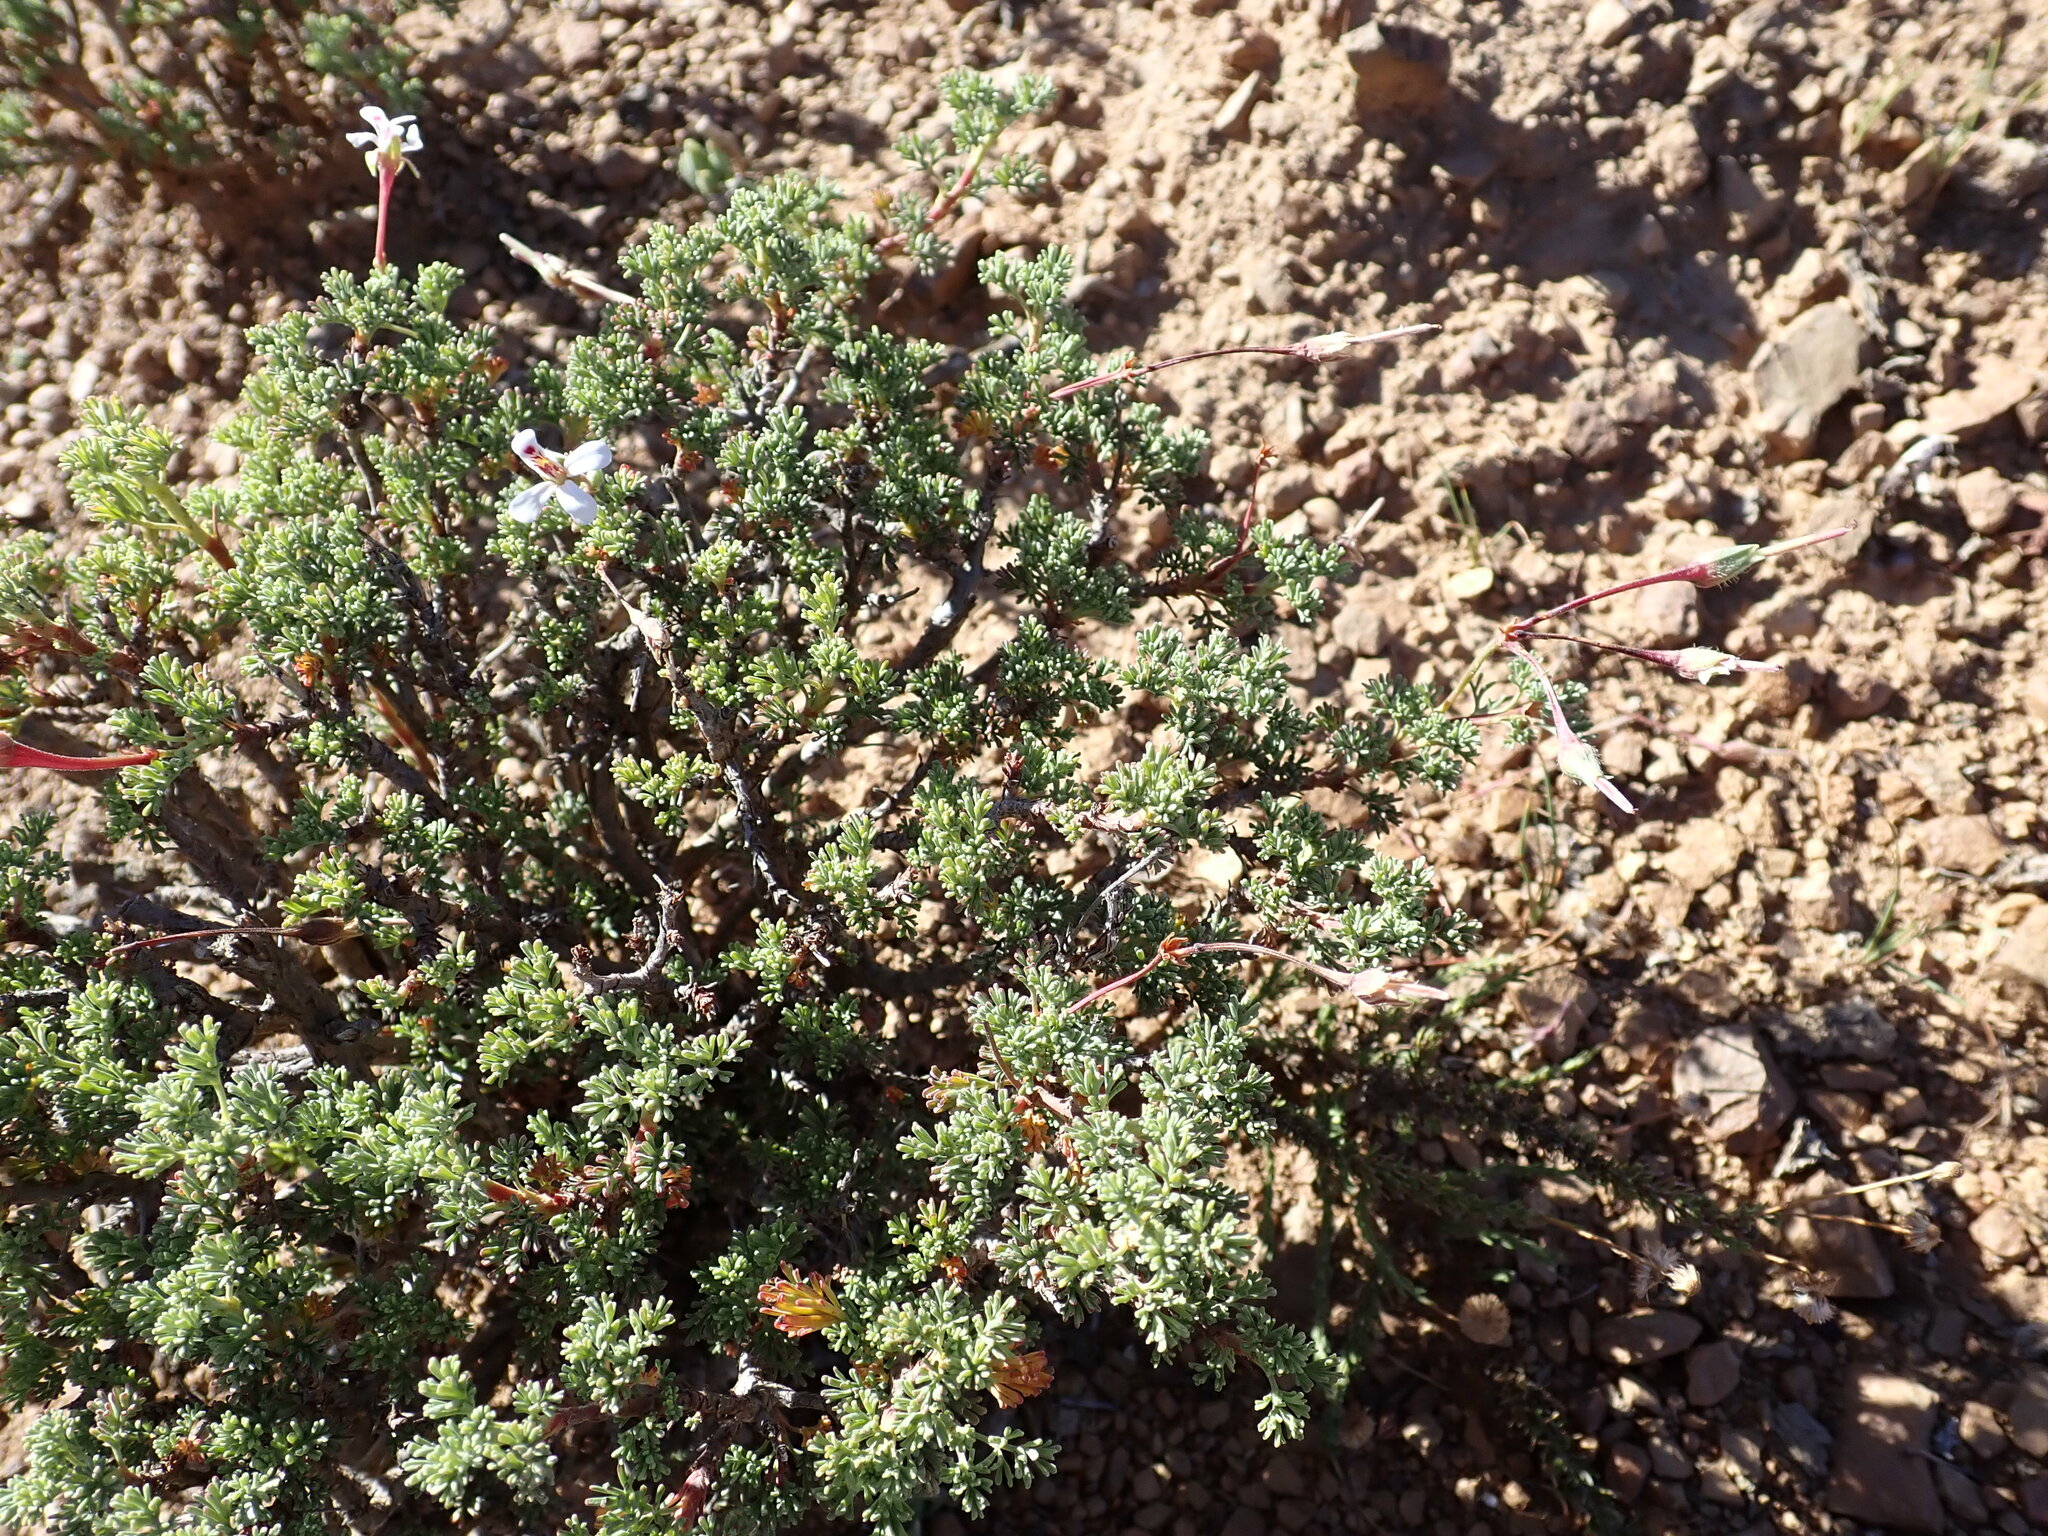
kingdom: Plantae
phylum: Tracheophyta
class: Magnoliopsida
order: Geraniales
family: Geraniaceae
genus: Pelargonium
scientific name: Pelargonium abrotanifolium
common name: Southernwood geranium
